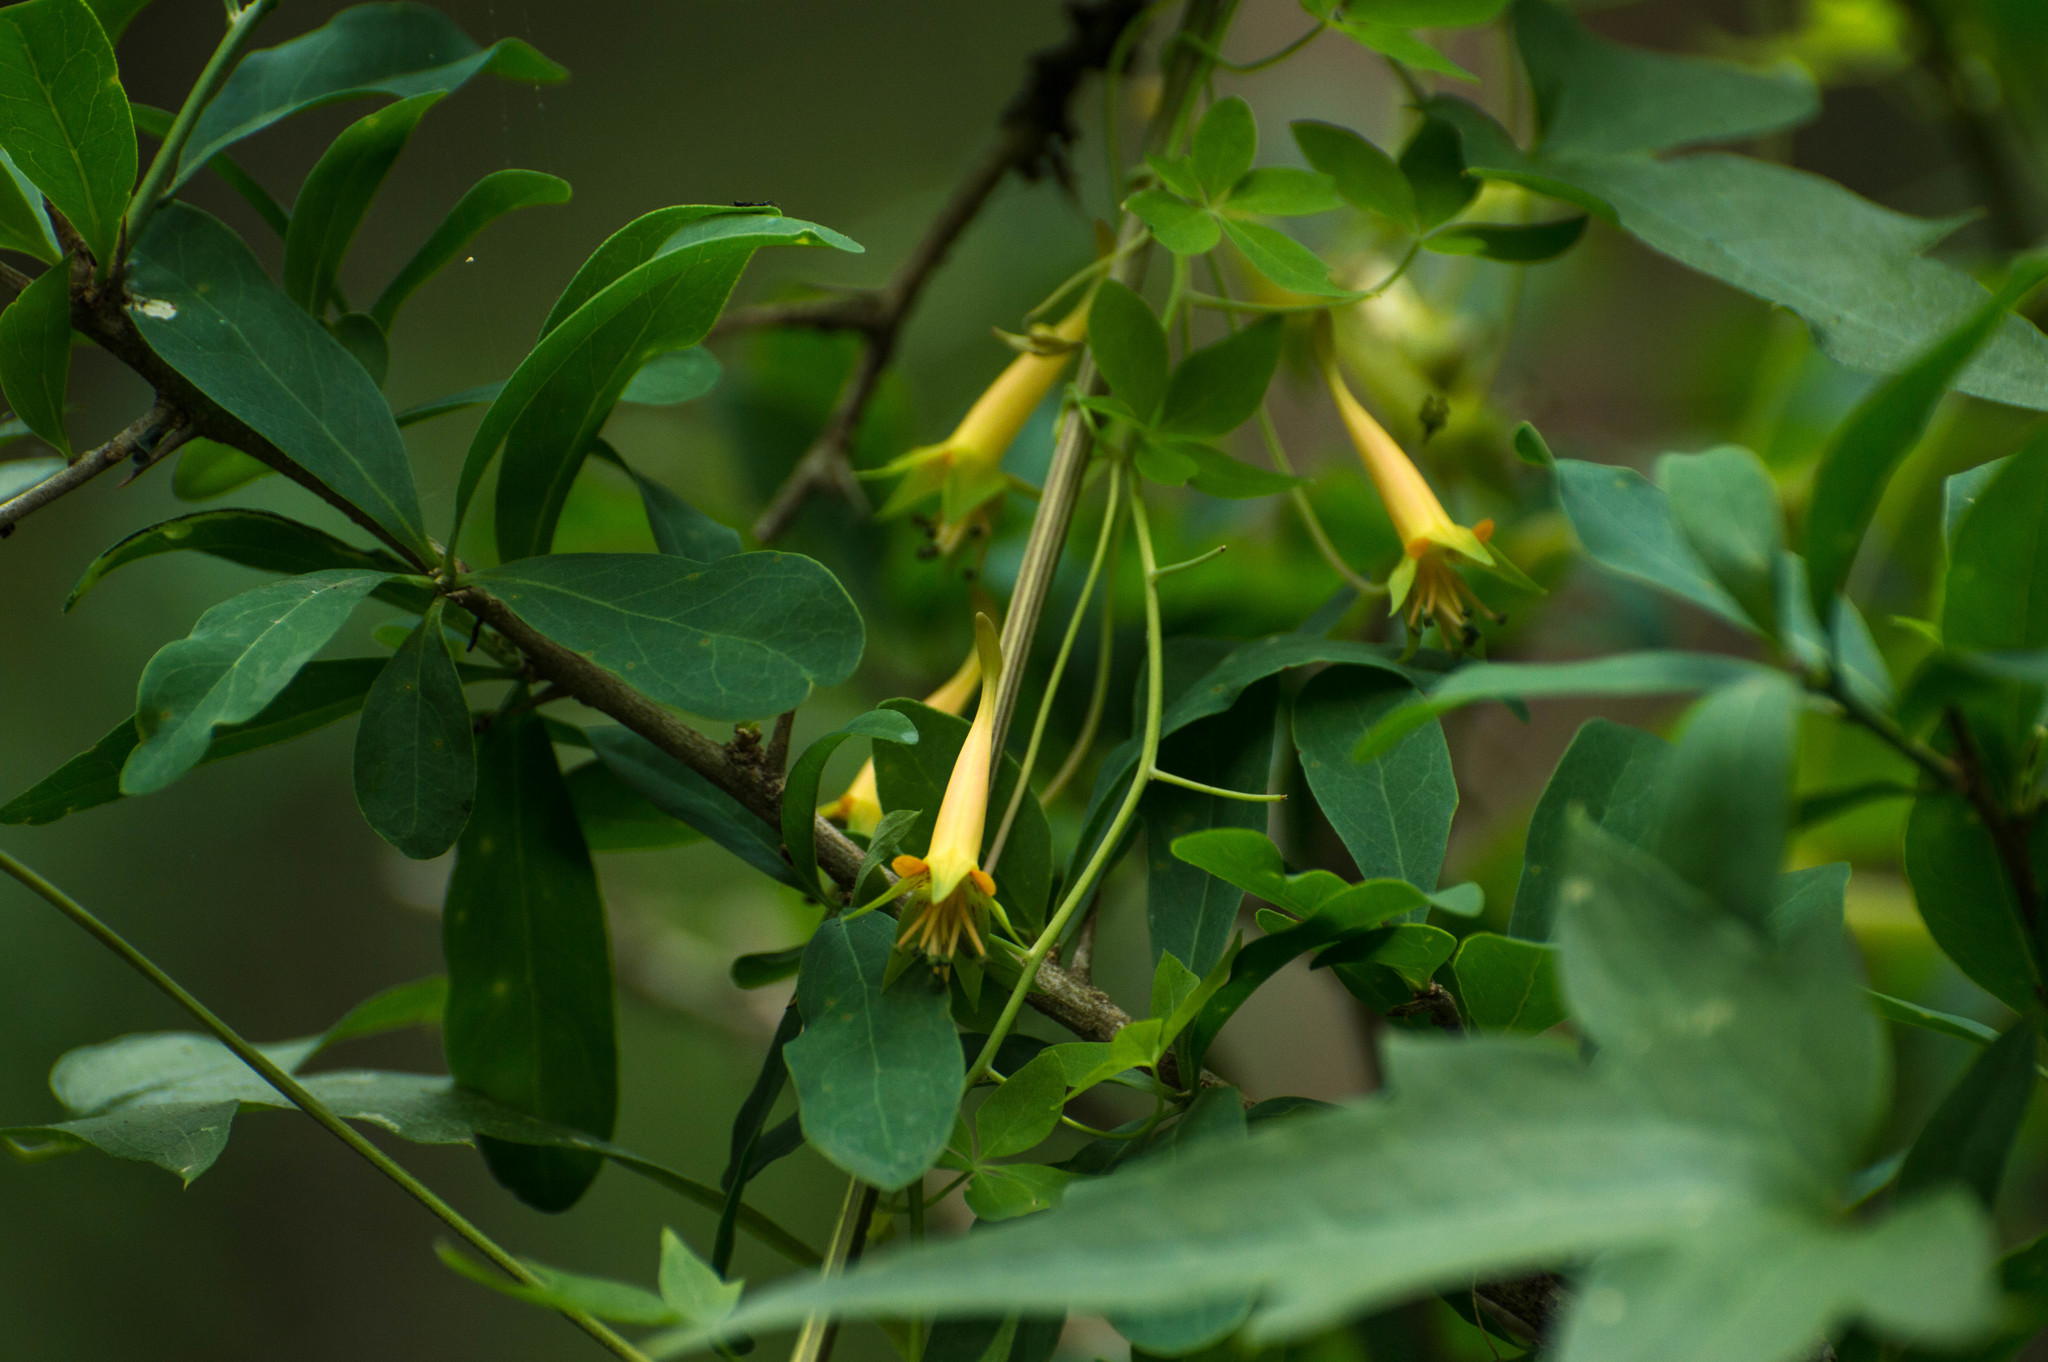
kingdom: Plantae
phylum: Tracheophyta
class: Magnoliopsida
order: Brassicales
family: Tropaeolaceae
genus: Tropaeolum
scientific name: Tropaeolum pentaphyllum
